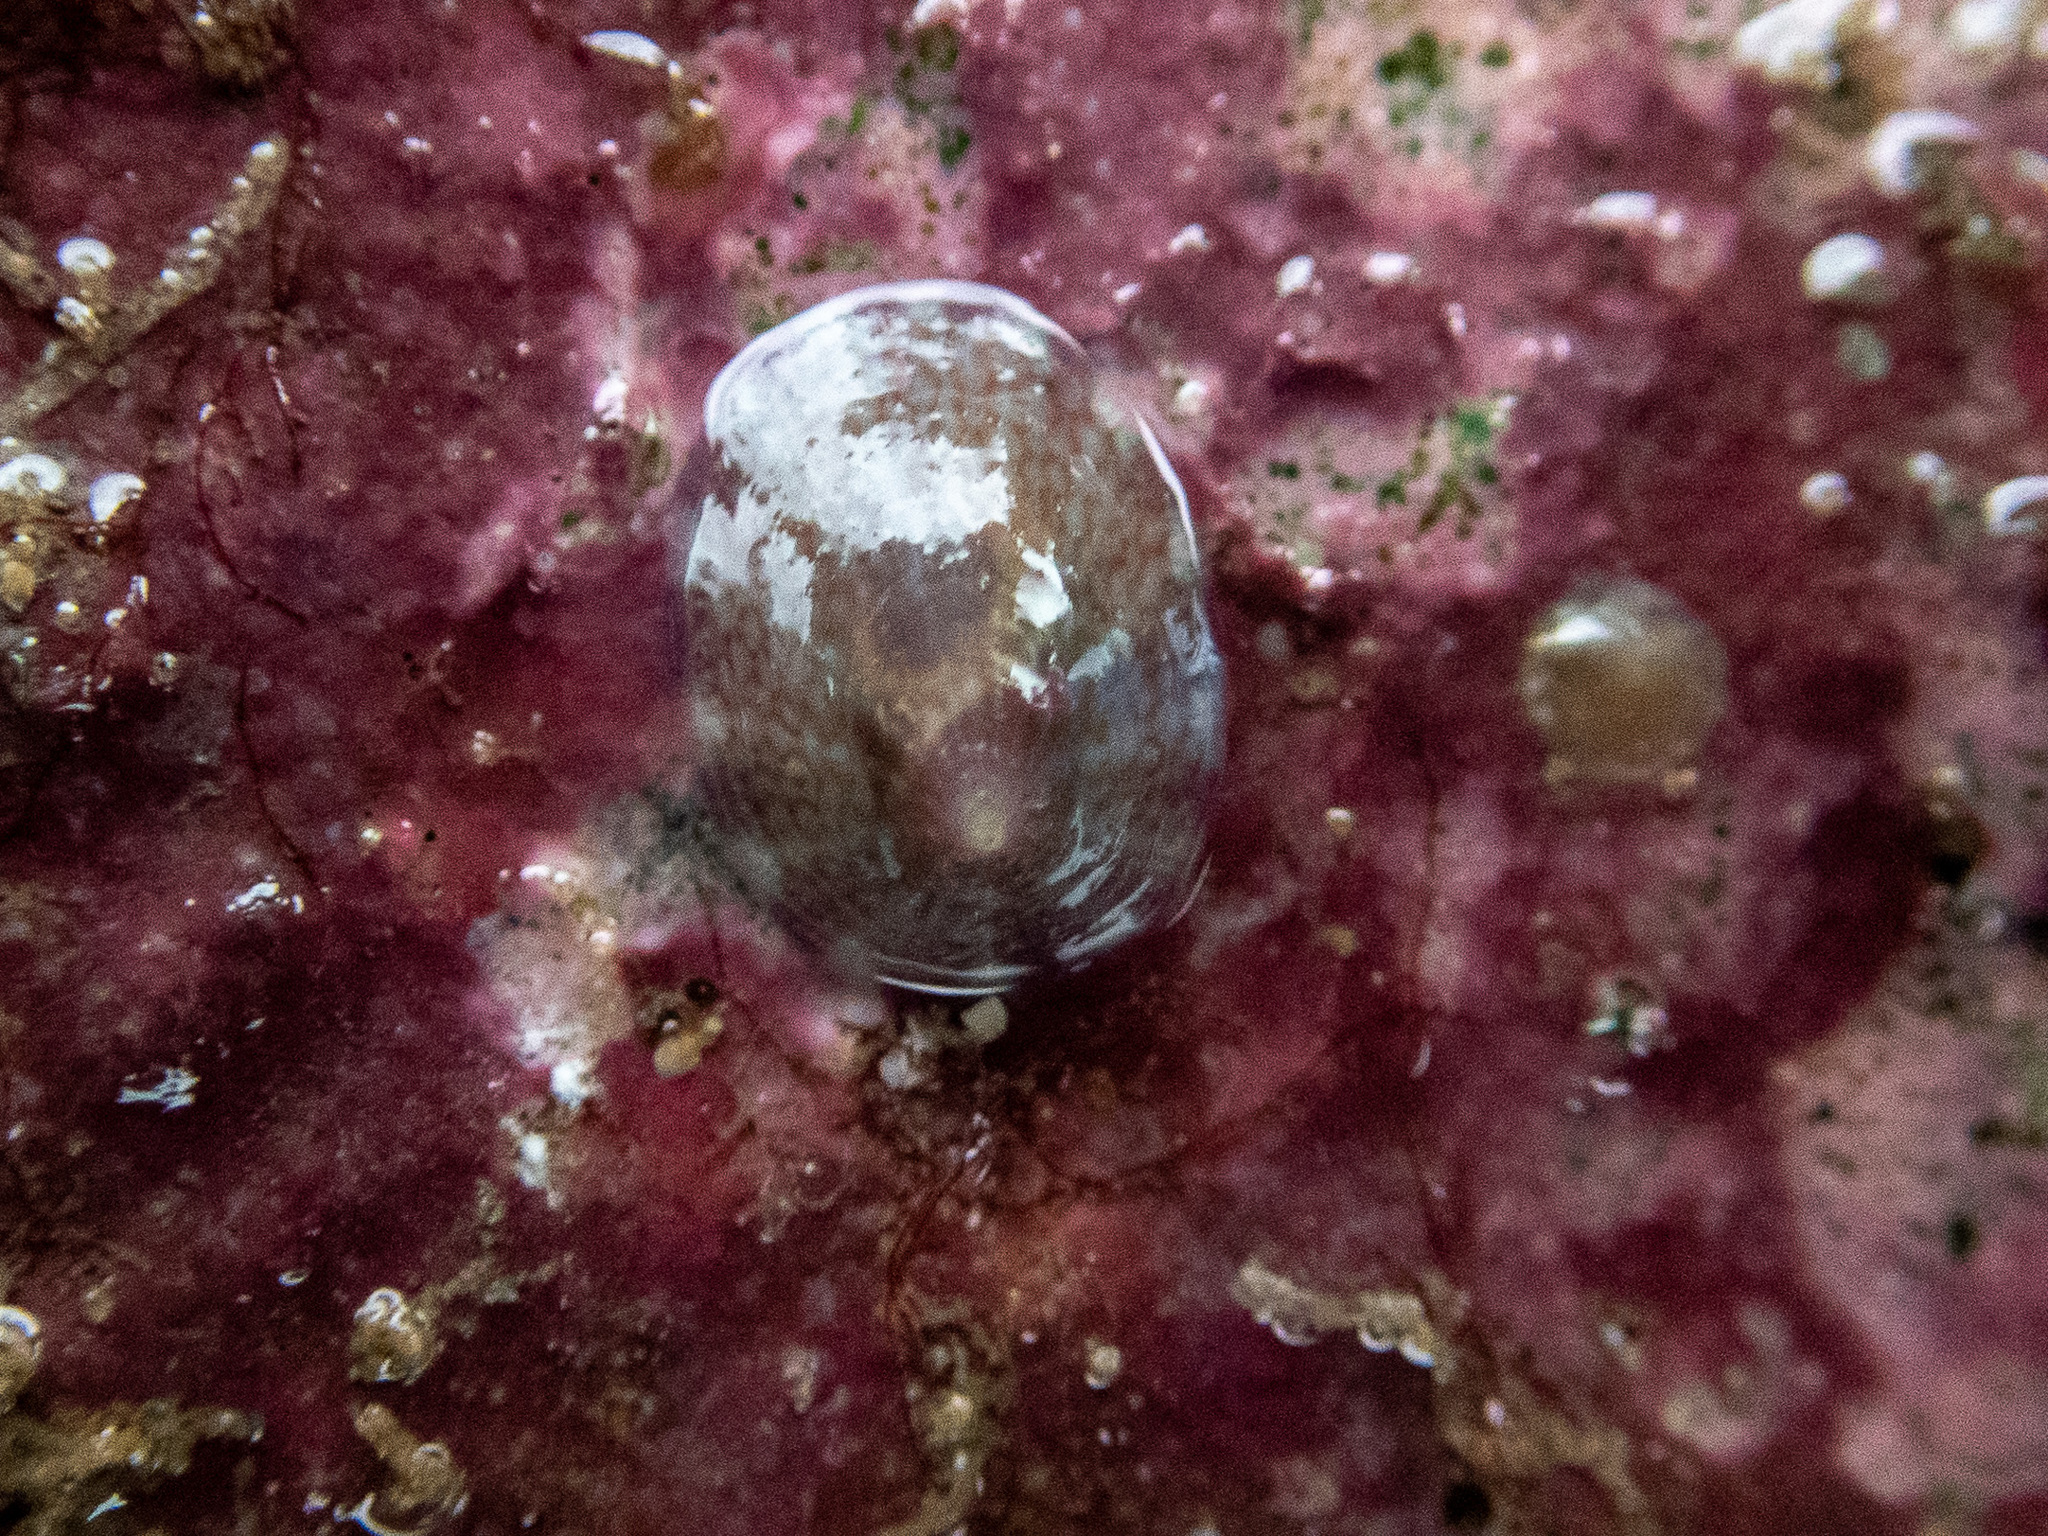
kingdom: Animalia
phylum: Mollusca
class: Gastropoda
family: Lottiidae
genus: Tectura
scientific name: Tectura virginea
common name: White tortoiseshell limpet
